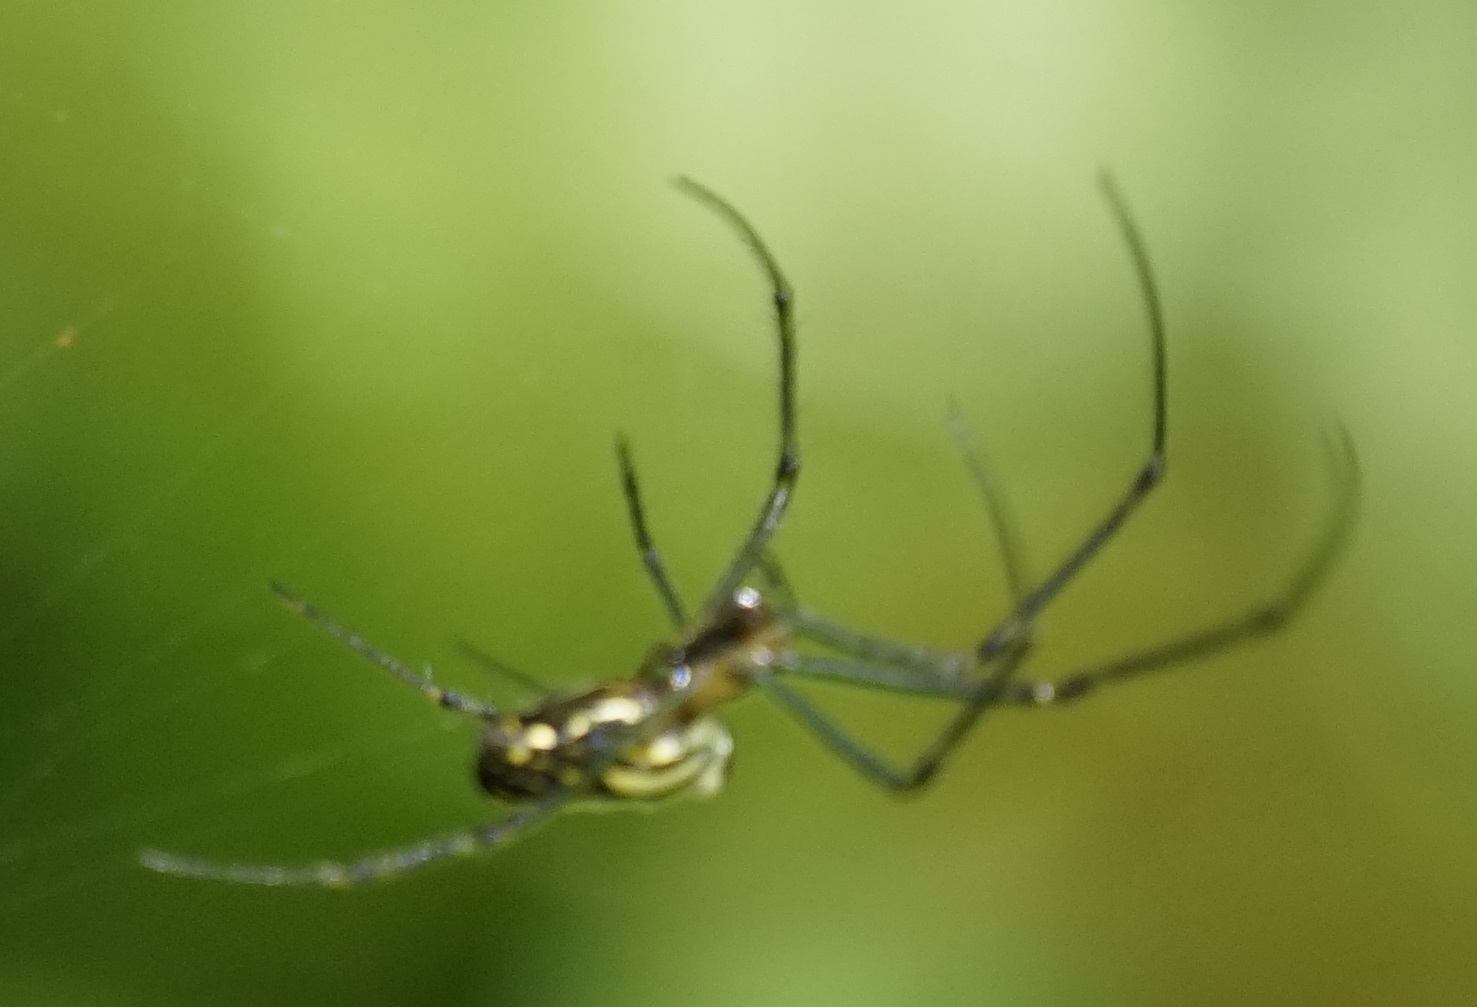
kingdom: Animalia
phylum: Arthropoda
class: Arachnida
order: Araneae
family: Tetragnathidae
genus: Leucauge
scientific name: Leucauge dromedaria
